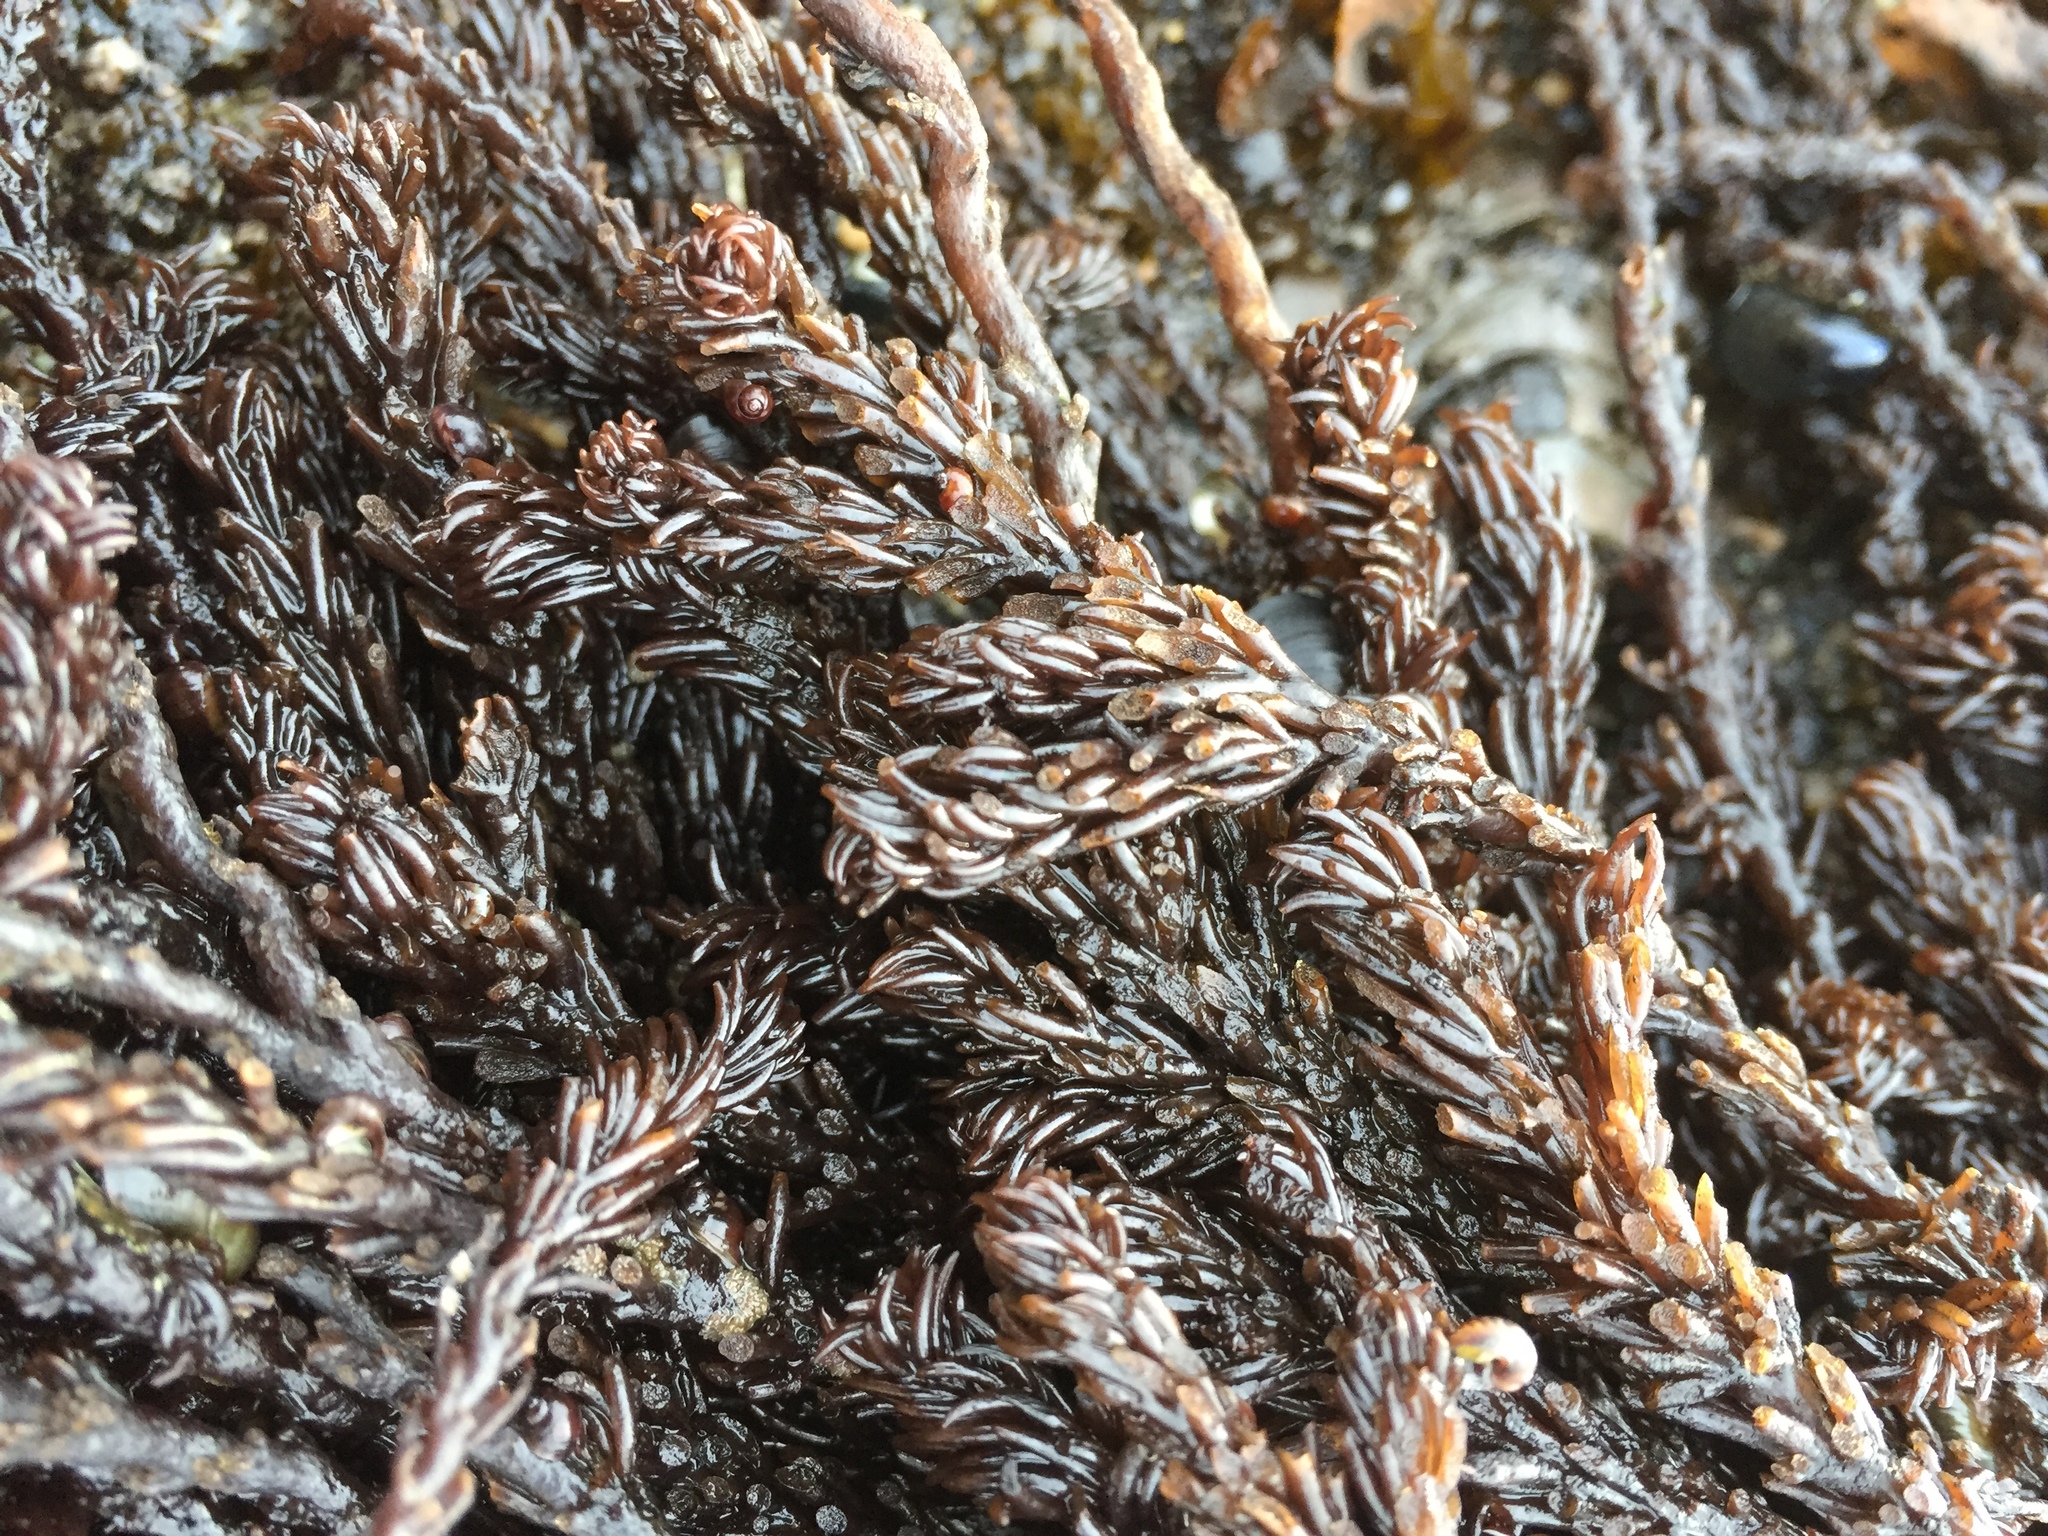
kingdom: Plantae
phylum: Rhodophyta
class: Florideophyceae
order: Ceramiales
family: Rhodomelaceae
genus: Neorhodomela
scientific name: Neorhodomela larix
